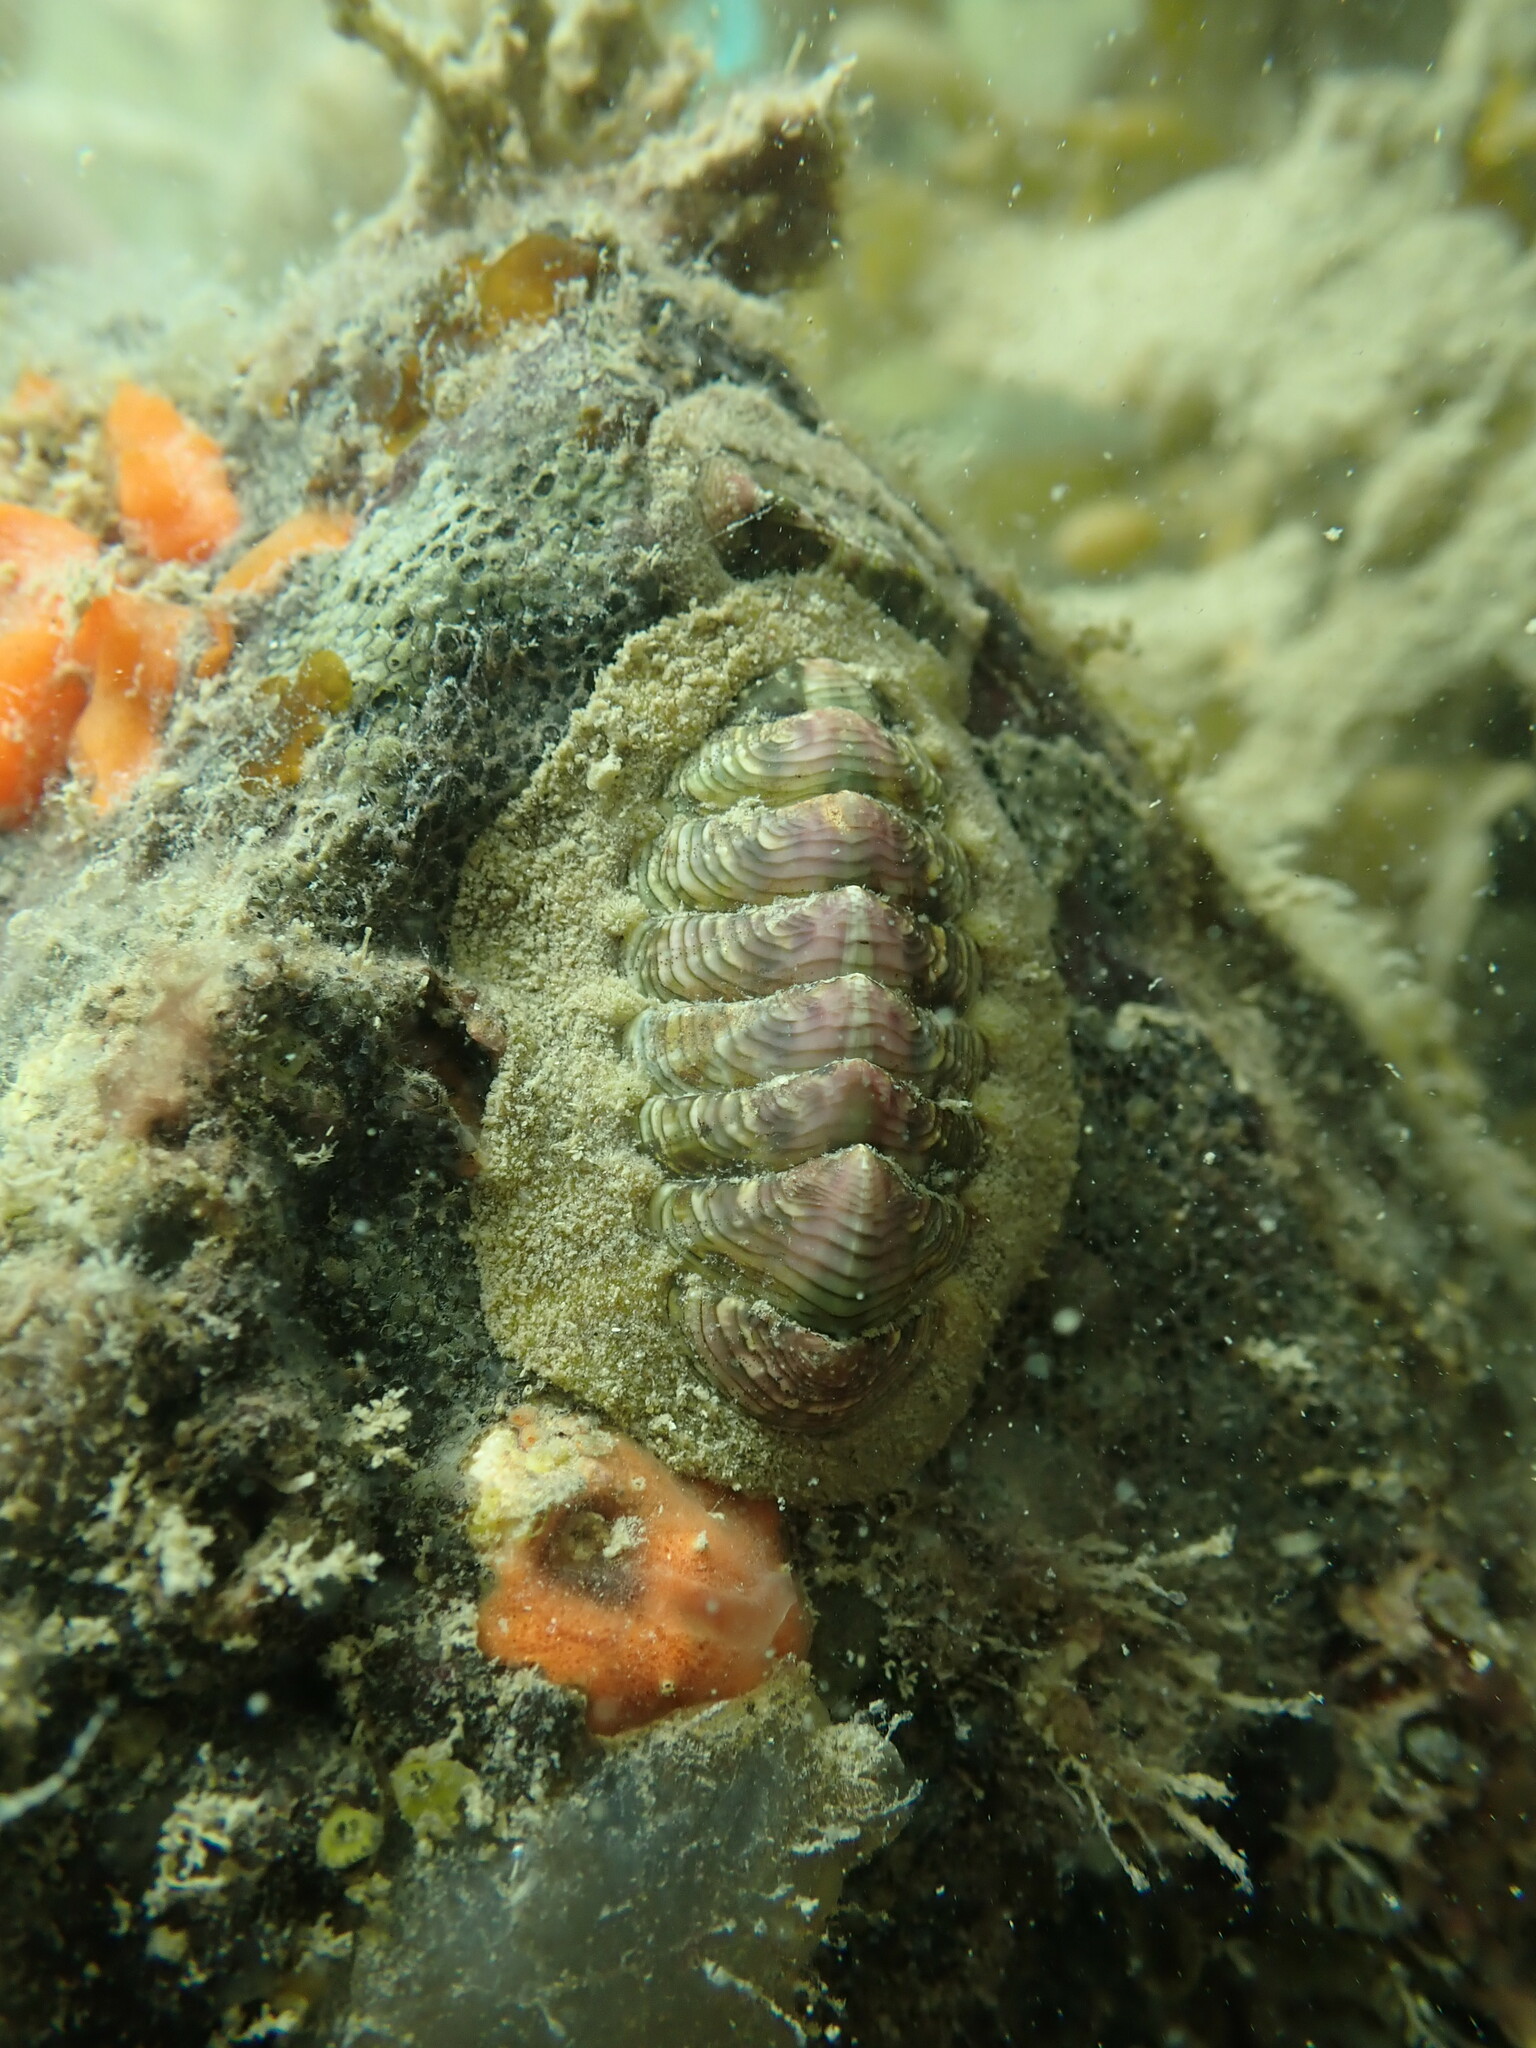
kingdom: Animalia
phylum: Mollusca
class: Polyplacophora
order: Chitonida
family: Chitonidae
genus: Onithochiton
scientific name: Onithochiton neglectus
